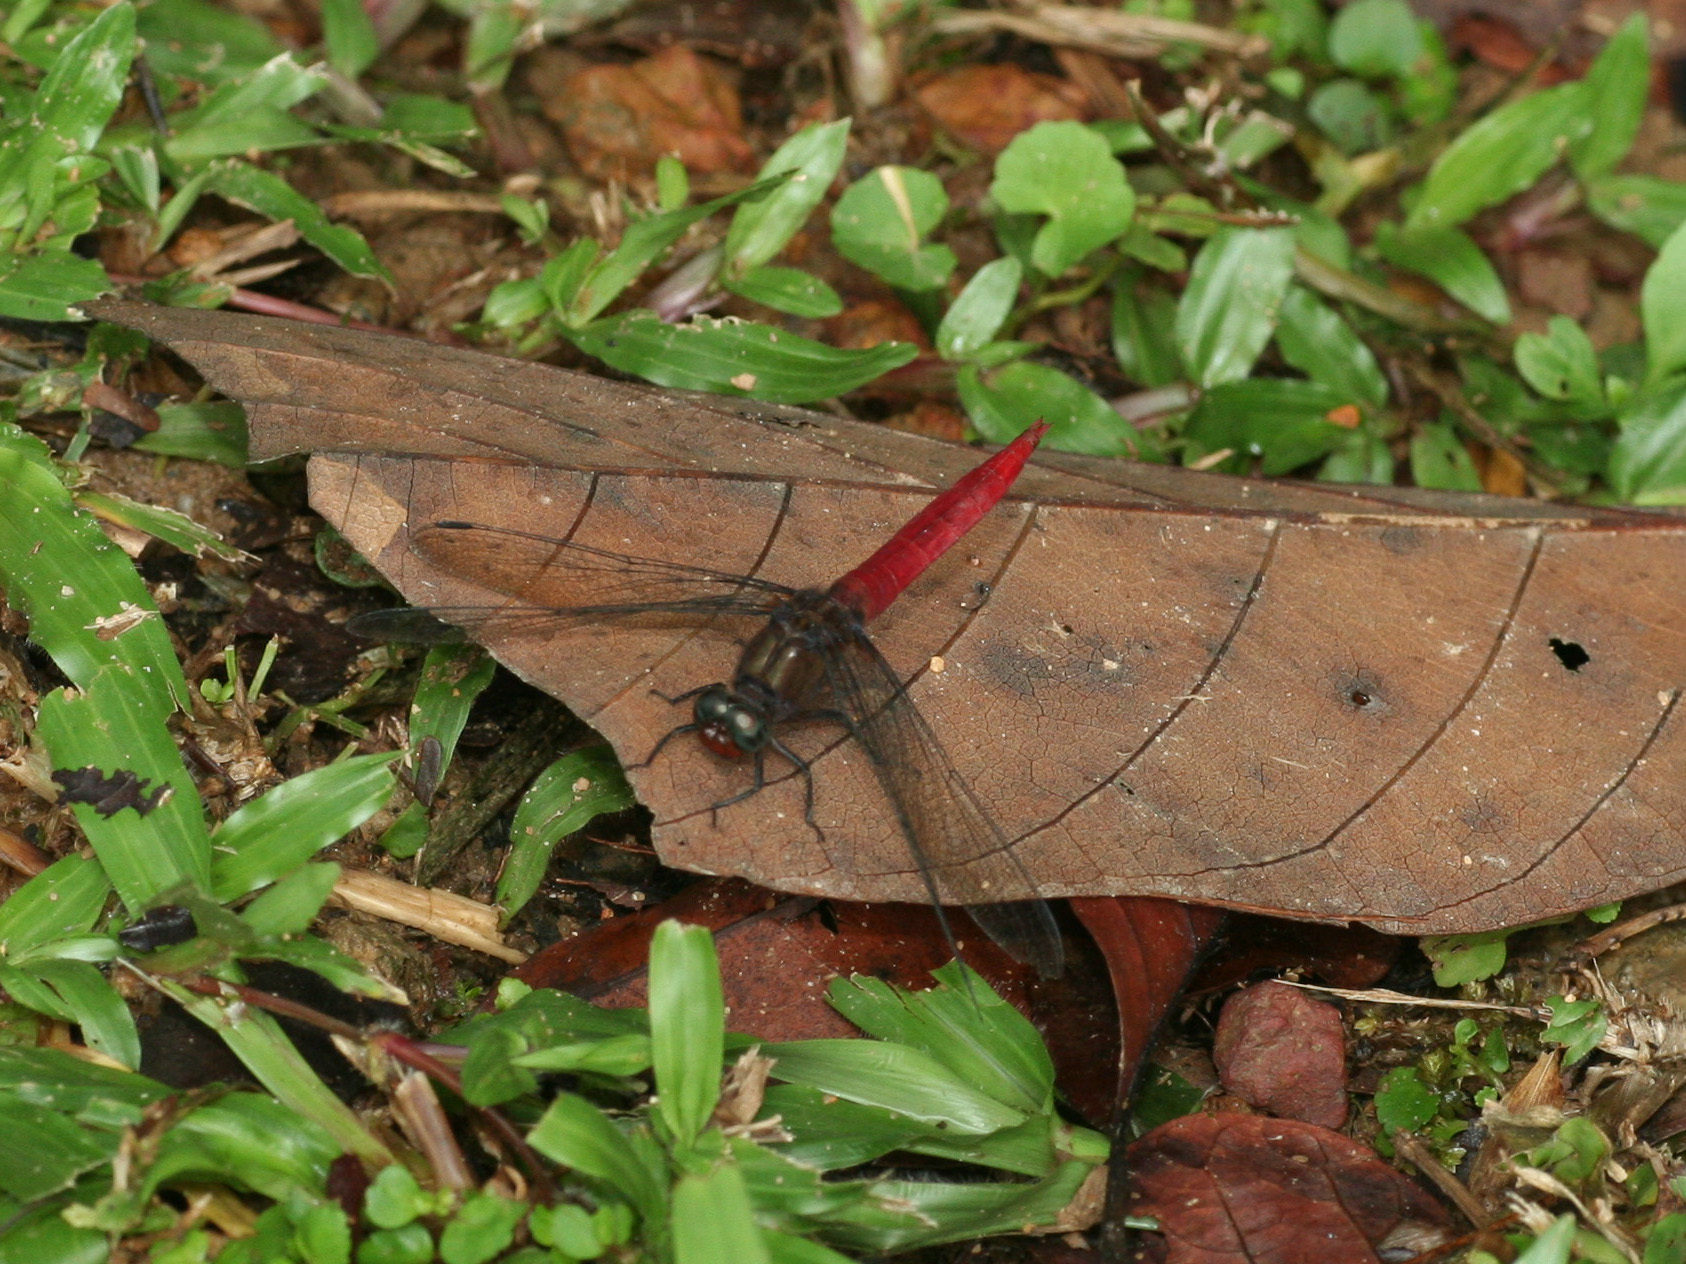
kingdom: Animalia
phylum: Arthropoda
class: Insecta
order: Odonata
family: Libellulidae
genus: Orthetrum
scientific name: Orthetrum chrysis
